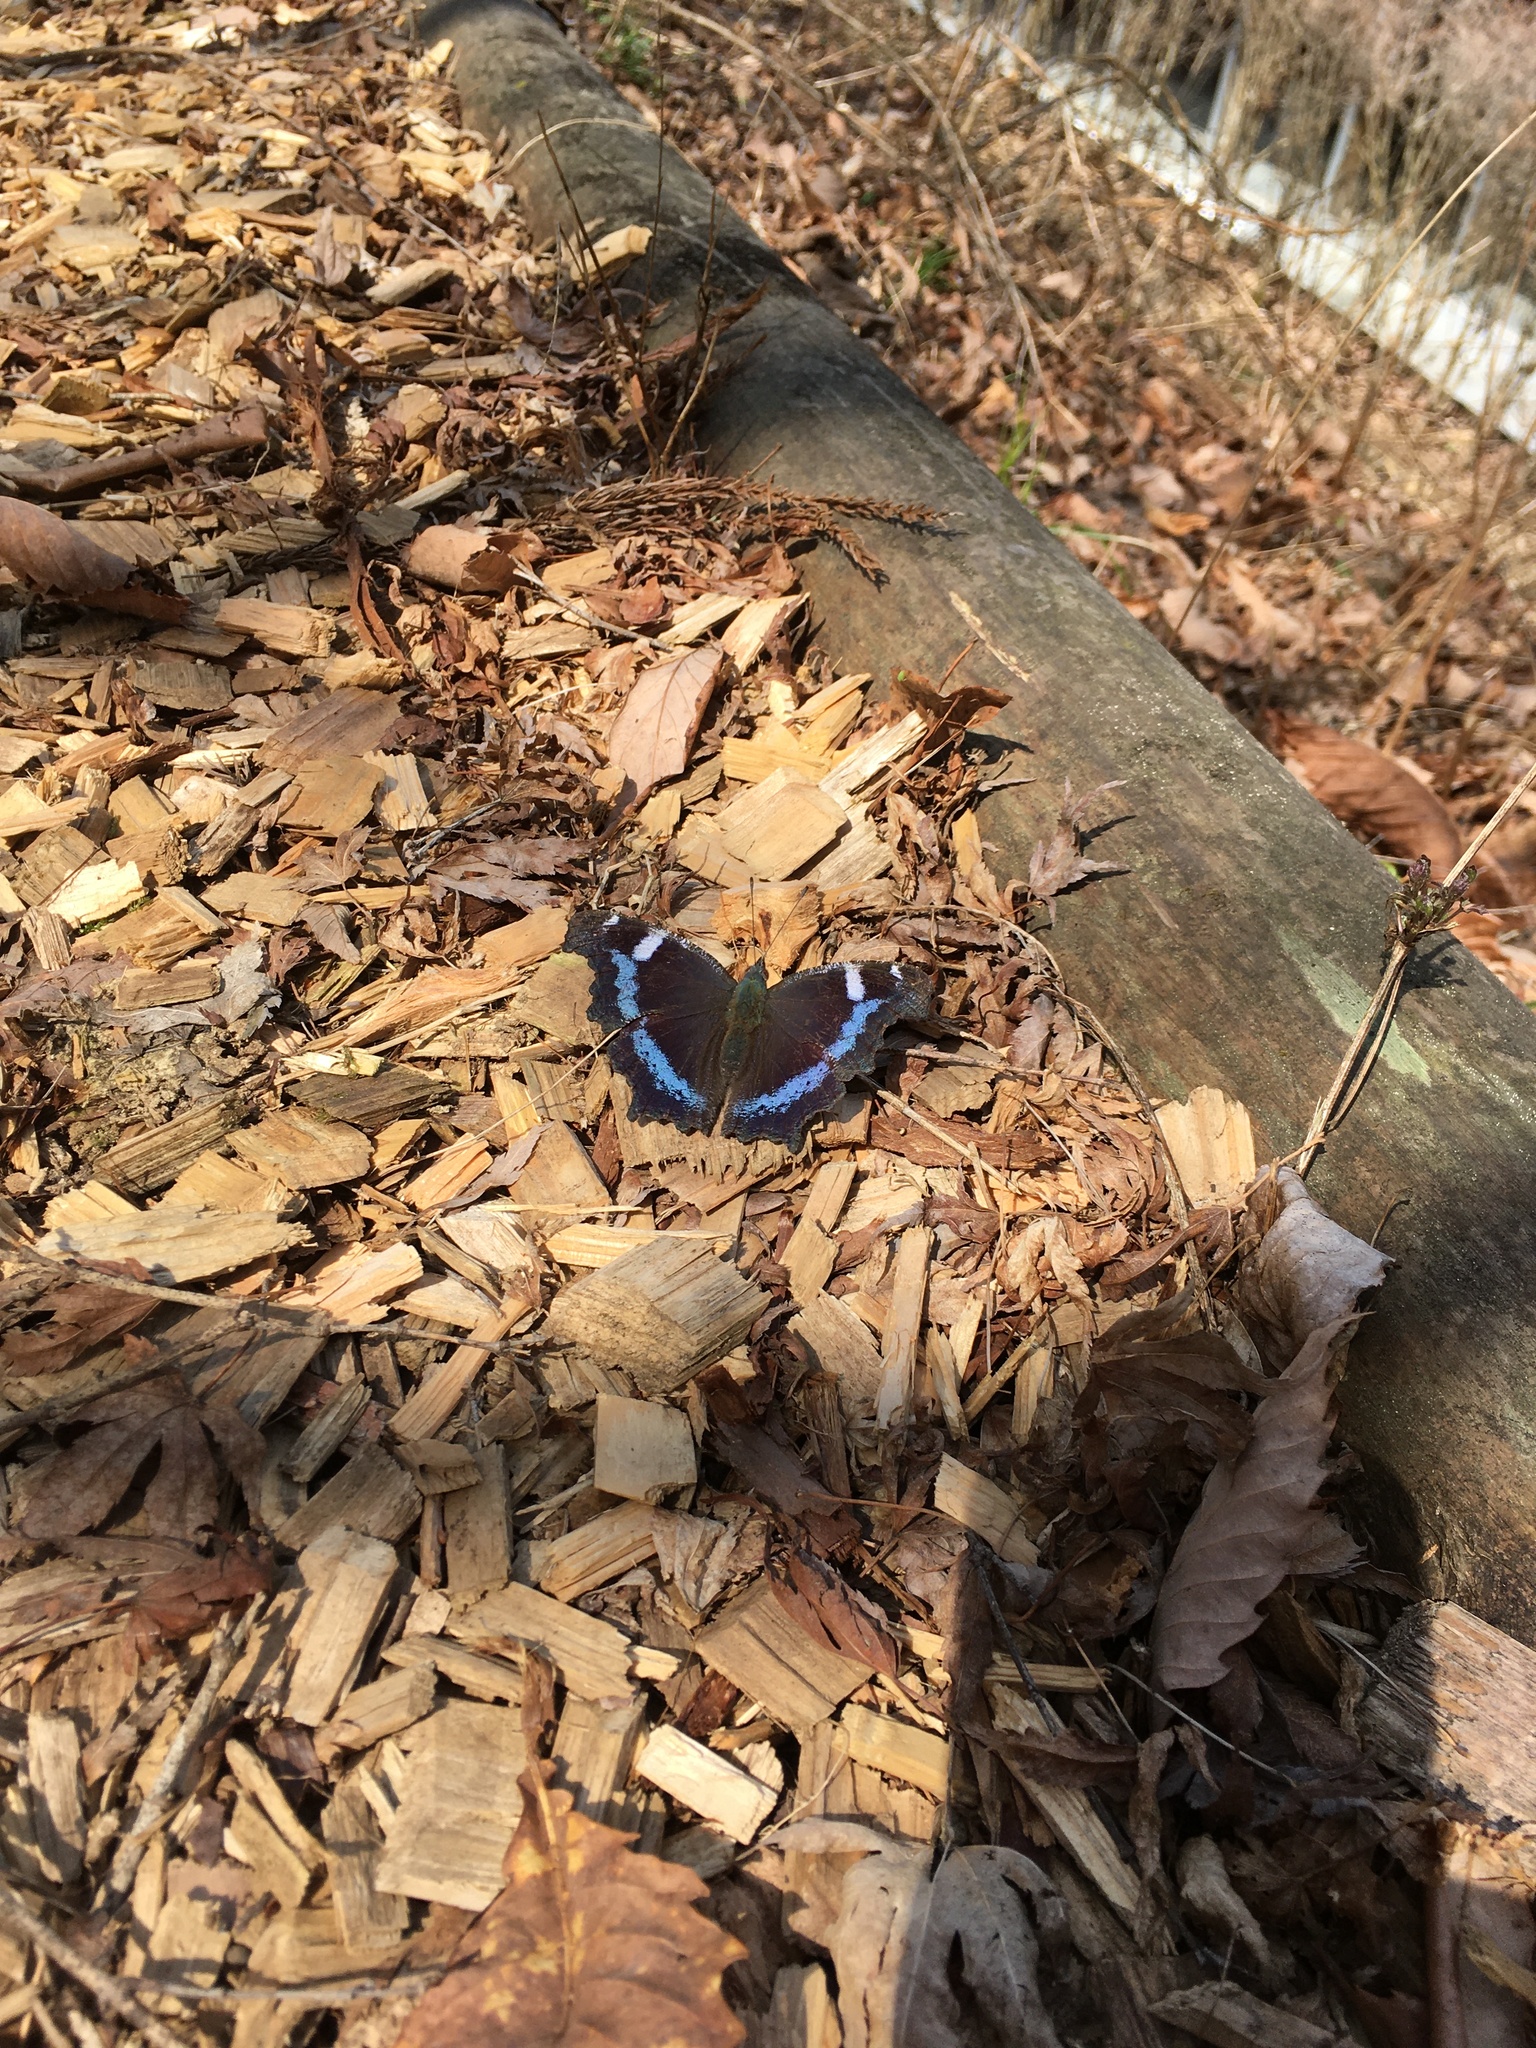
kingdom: Animalia
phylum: Arthropoda
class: Insecta
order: Lepidoptera
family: Nymphalidae
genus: Vanessa
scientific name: Vanessa Kaniska canace
